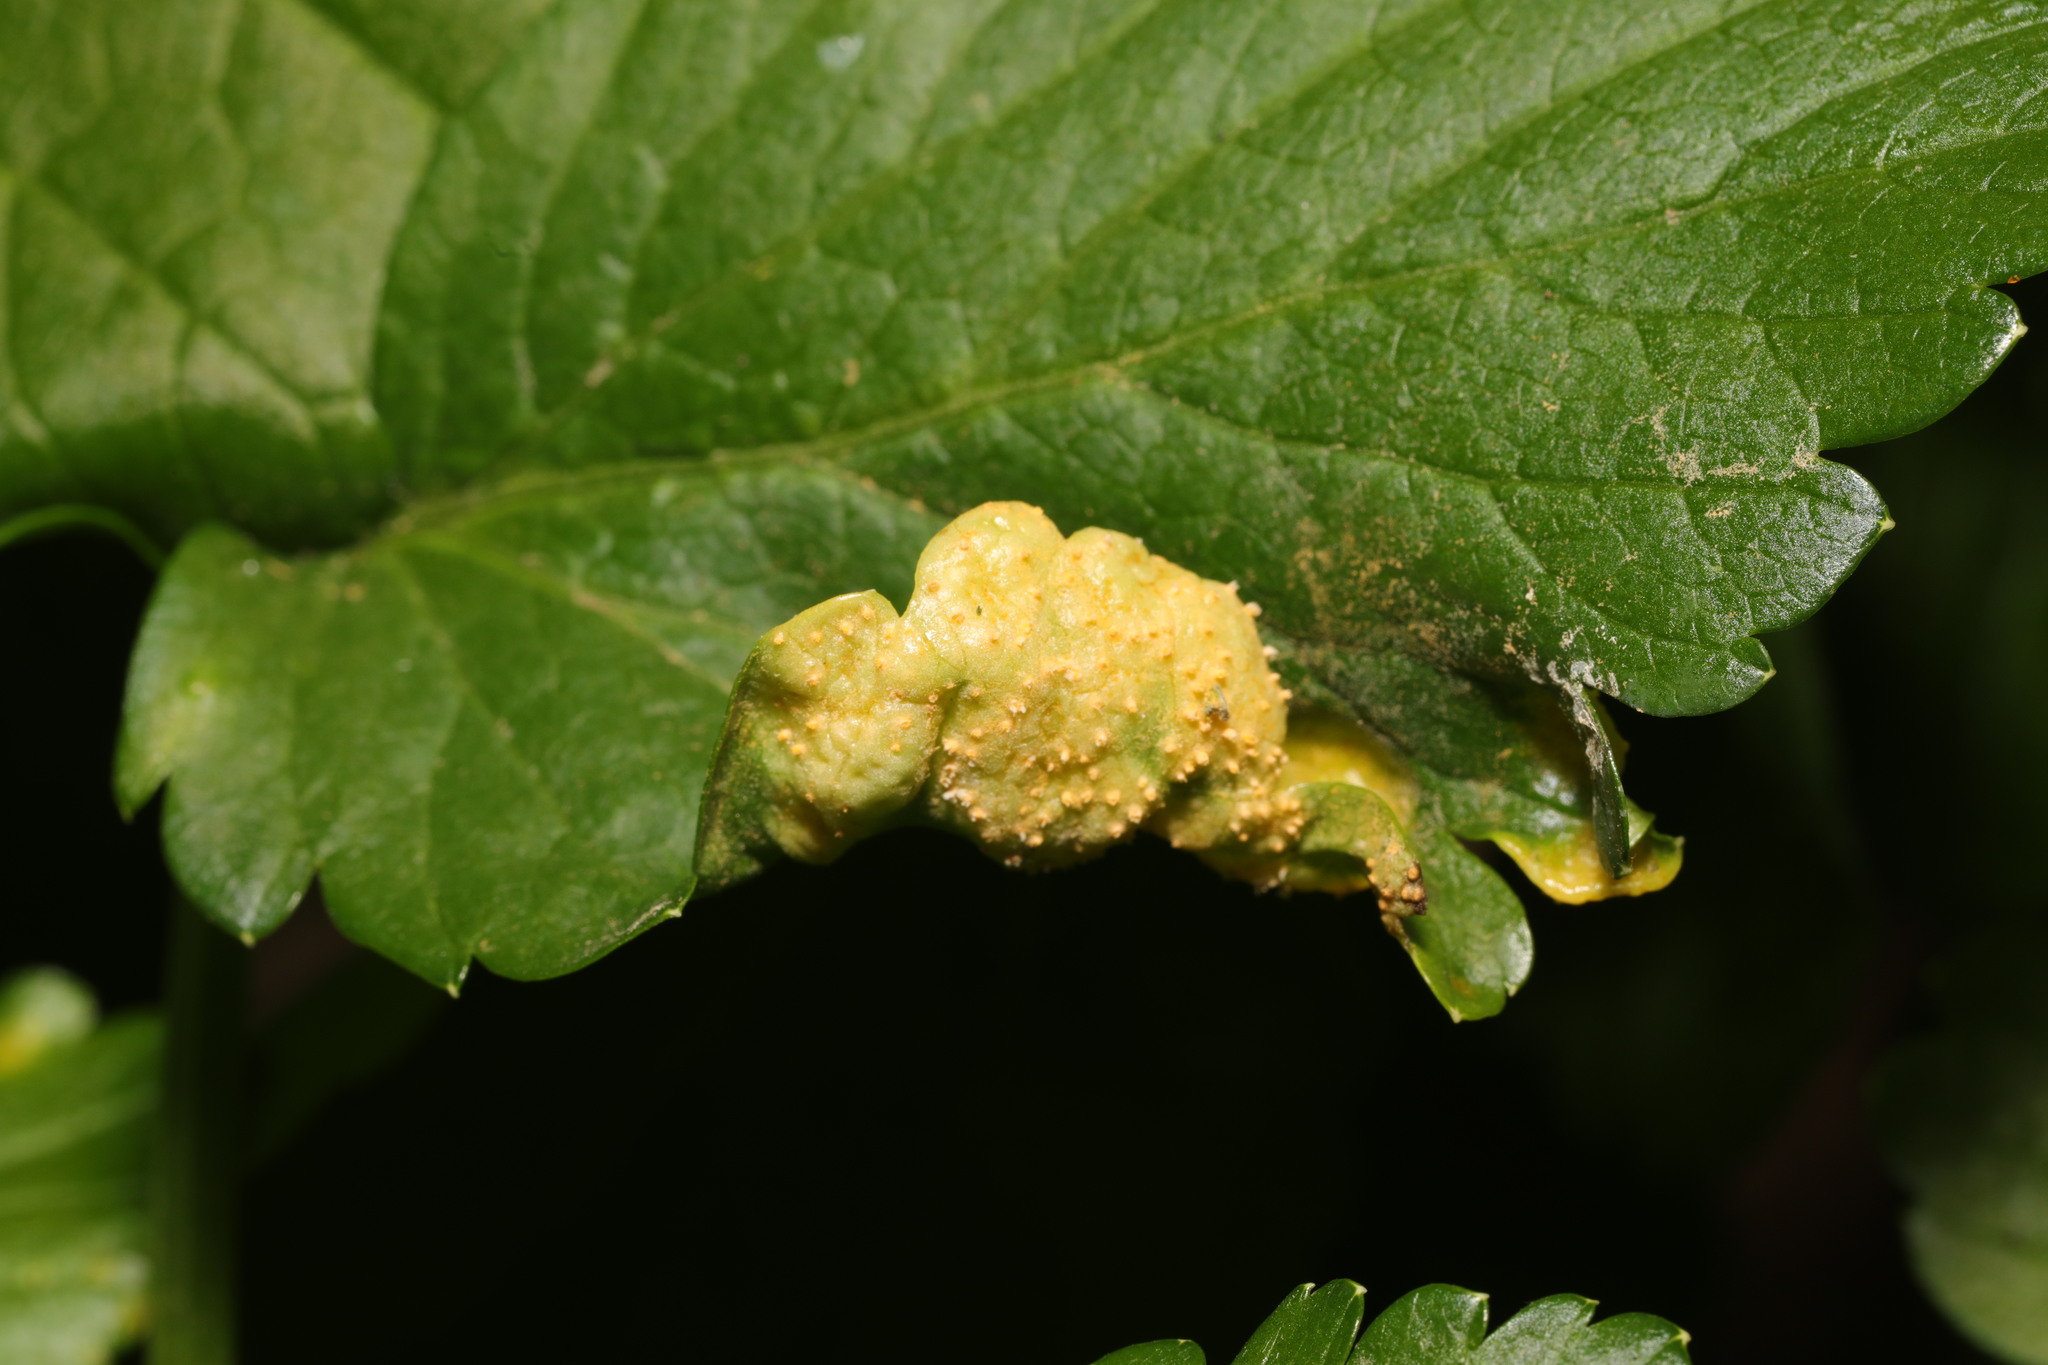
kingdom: Fungi
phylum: Basidiomycota
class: Pucciniomycetes
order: Pucciniales
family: Pucciniaceae
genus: Puccinia
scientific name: Puccinia smyrnii
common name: Alexanders rust
